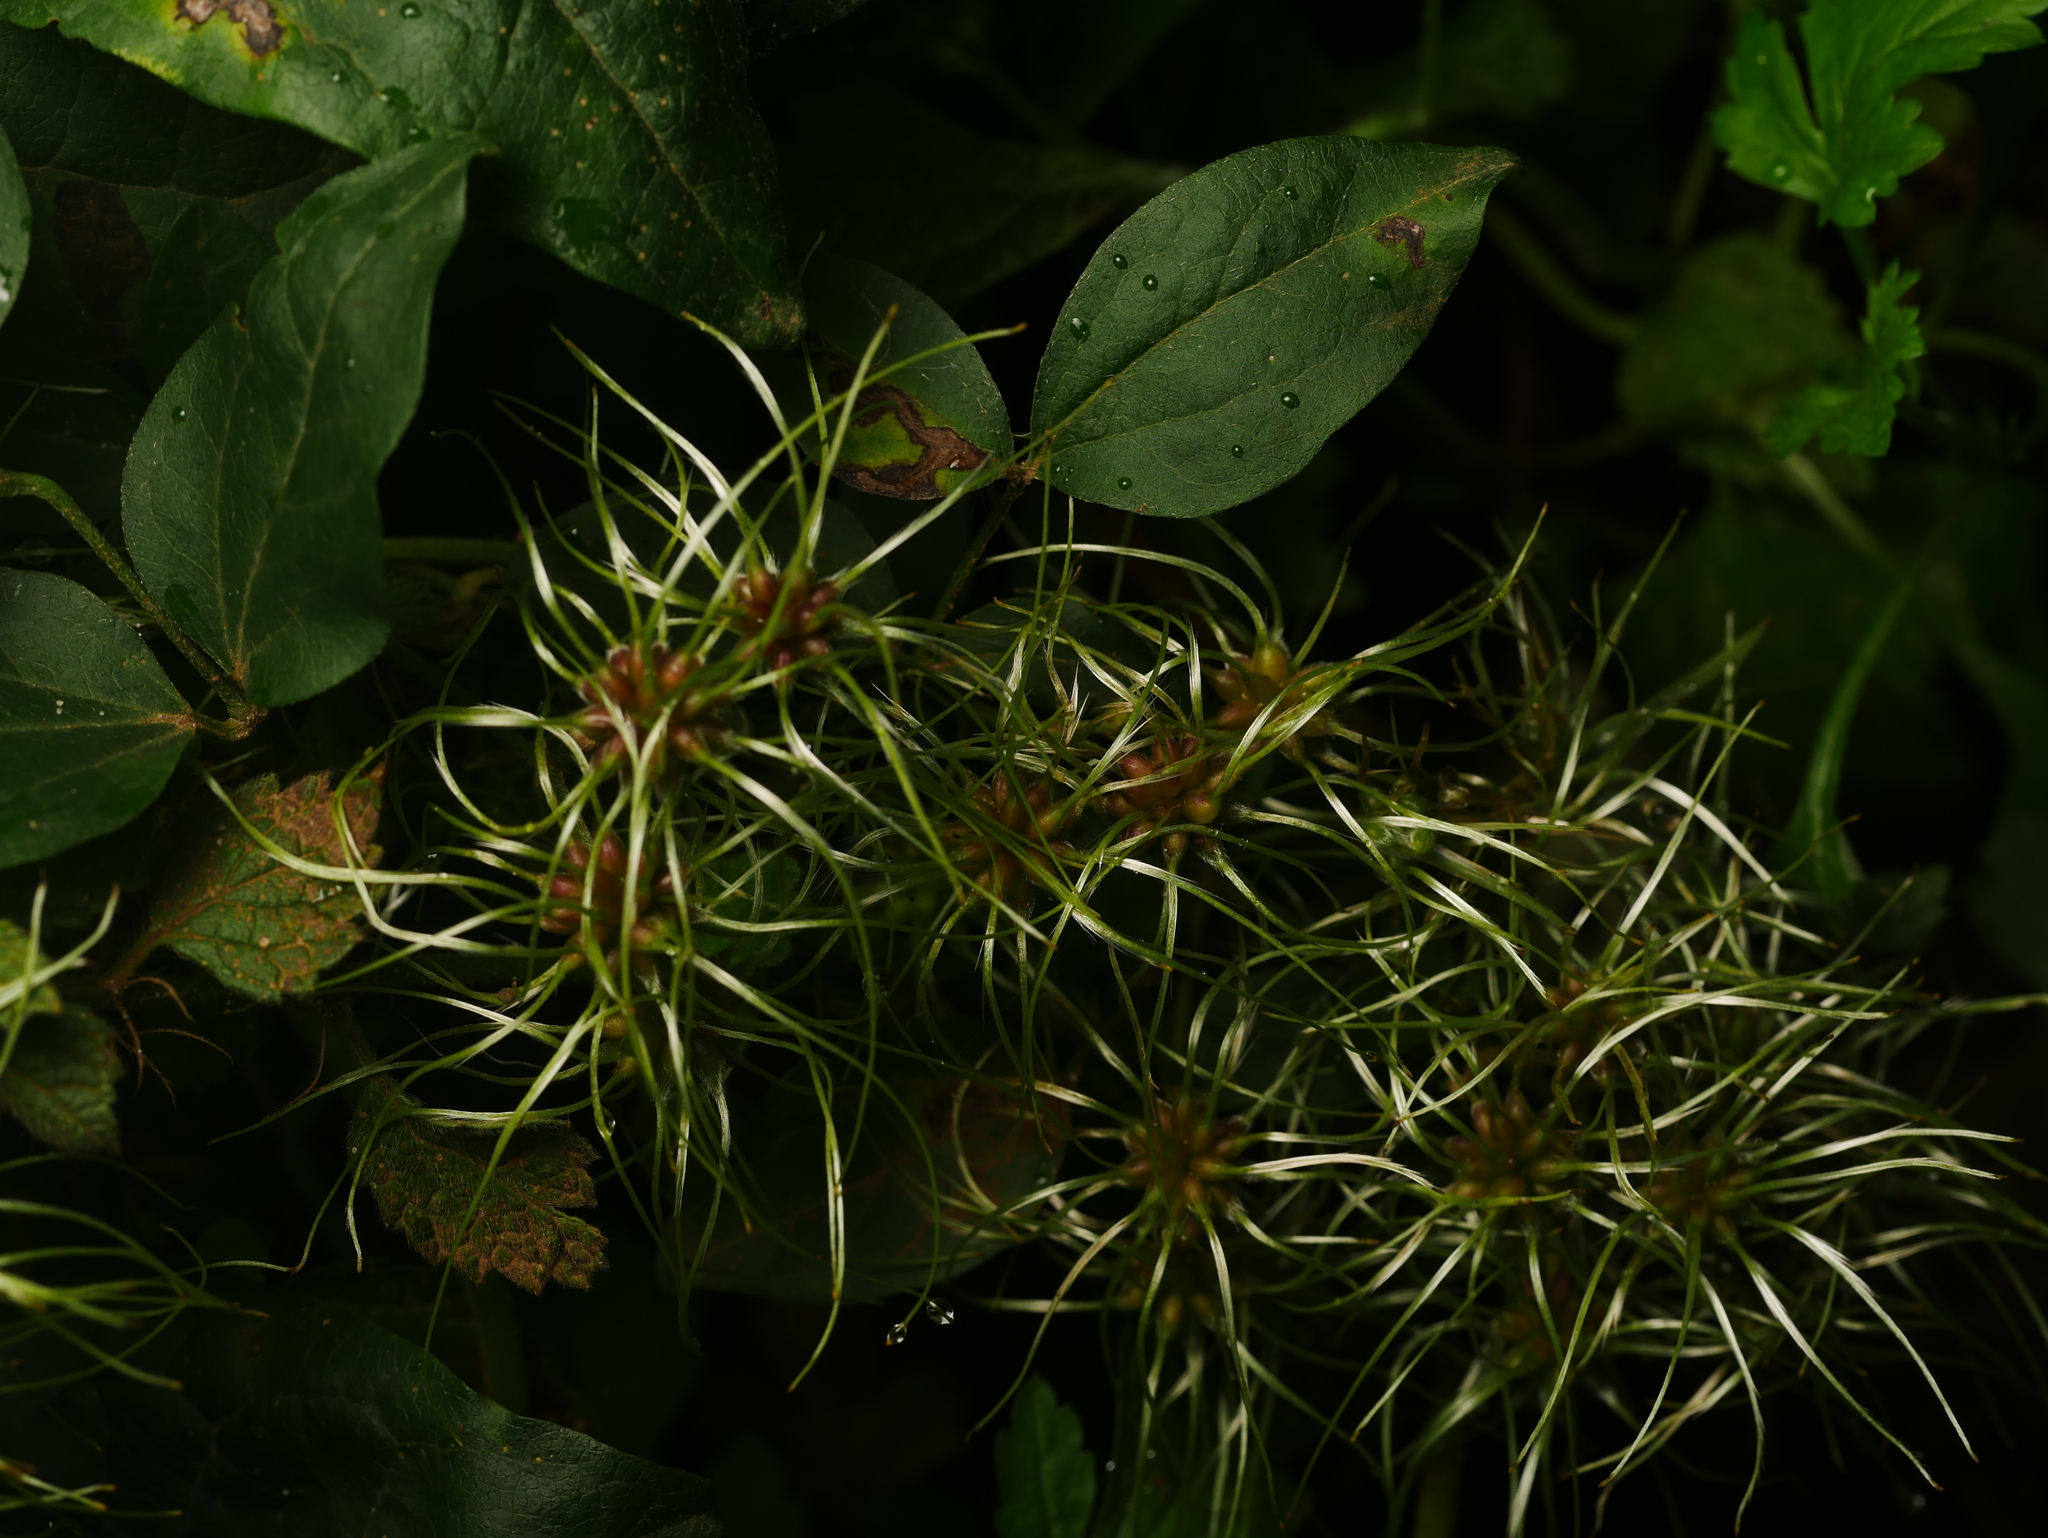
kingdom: Plantae
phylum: Tracheophyta
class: Magnoliopsida
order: Ranunculales
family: Ranunculaceae
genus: Clematis
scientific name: Clematis vitalba
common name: Evergreen clematis
